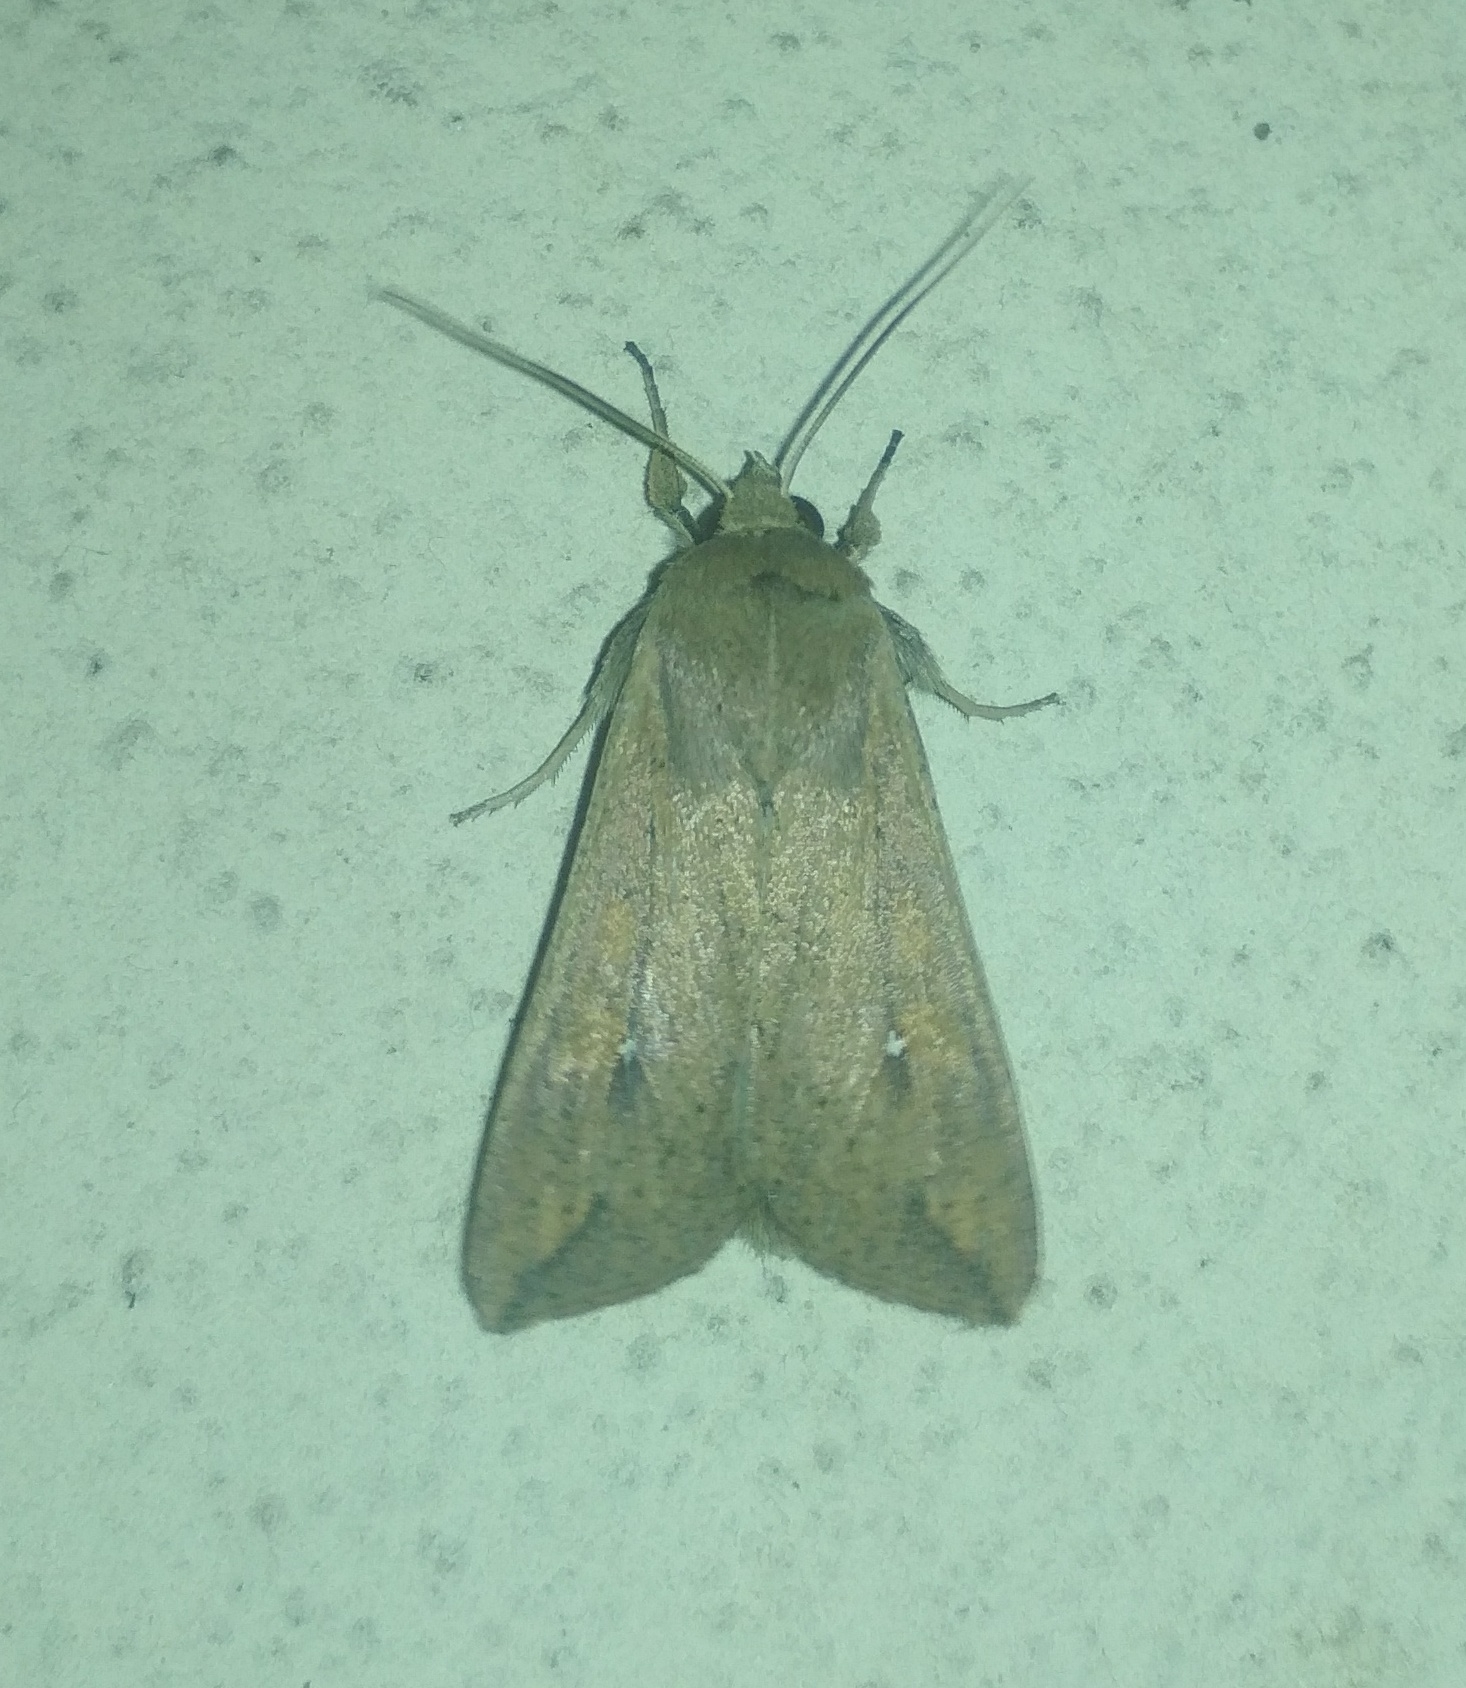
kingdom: Animalia
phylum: Arthropoda
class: Insecta
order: Lepidoptera
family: Noctuidae
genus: Mythimna
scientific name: Mythimna unipuncta
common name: White-speck
